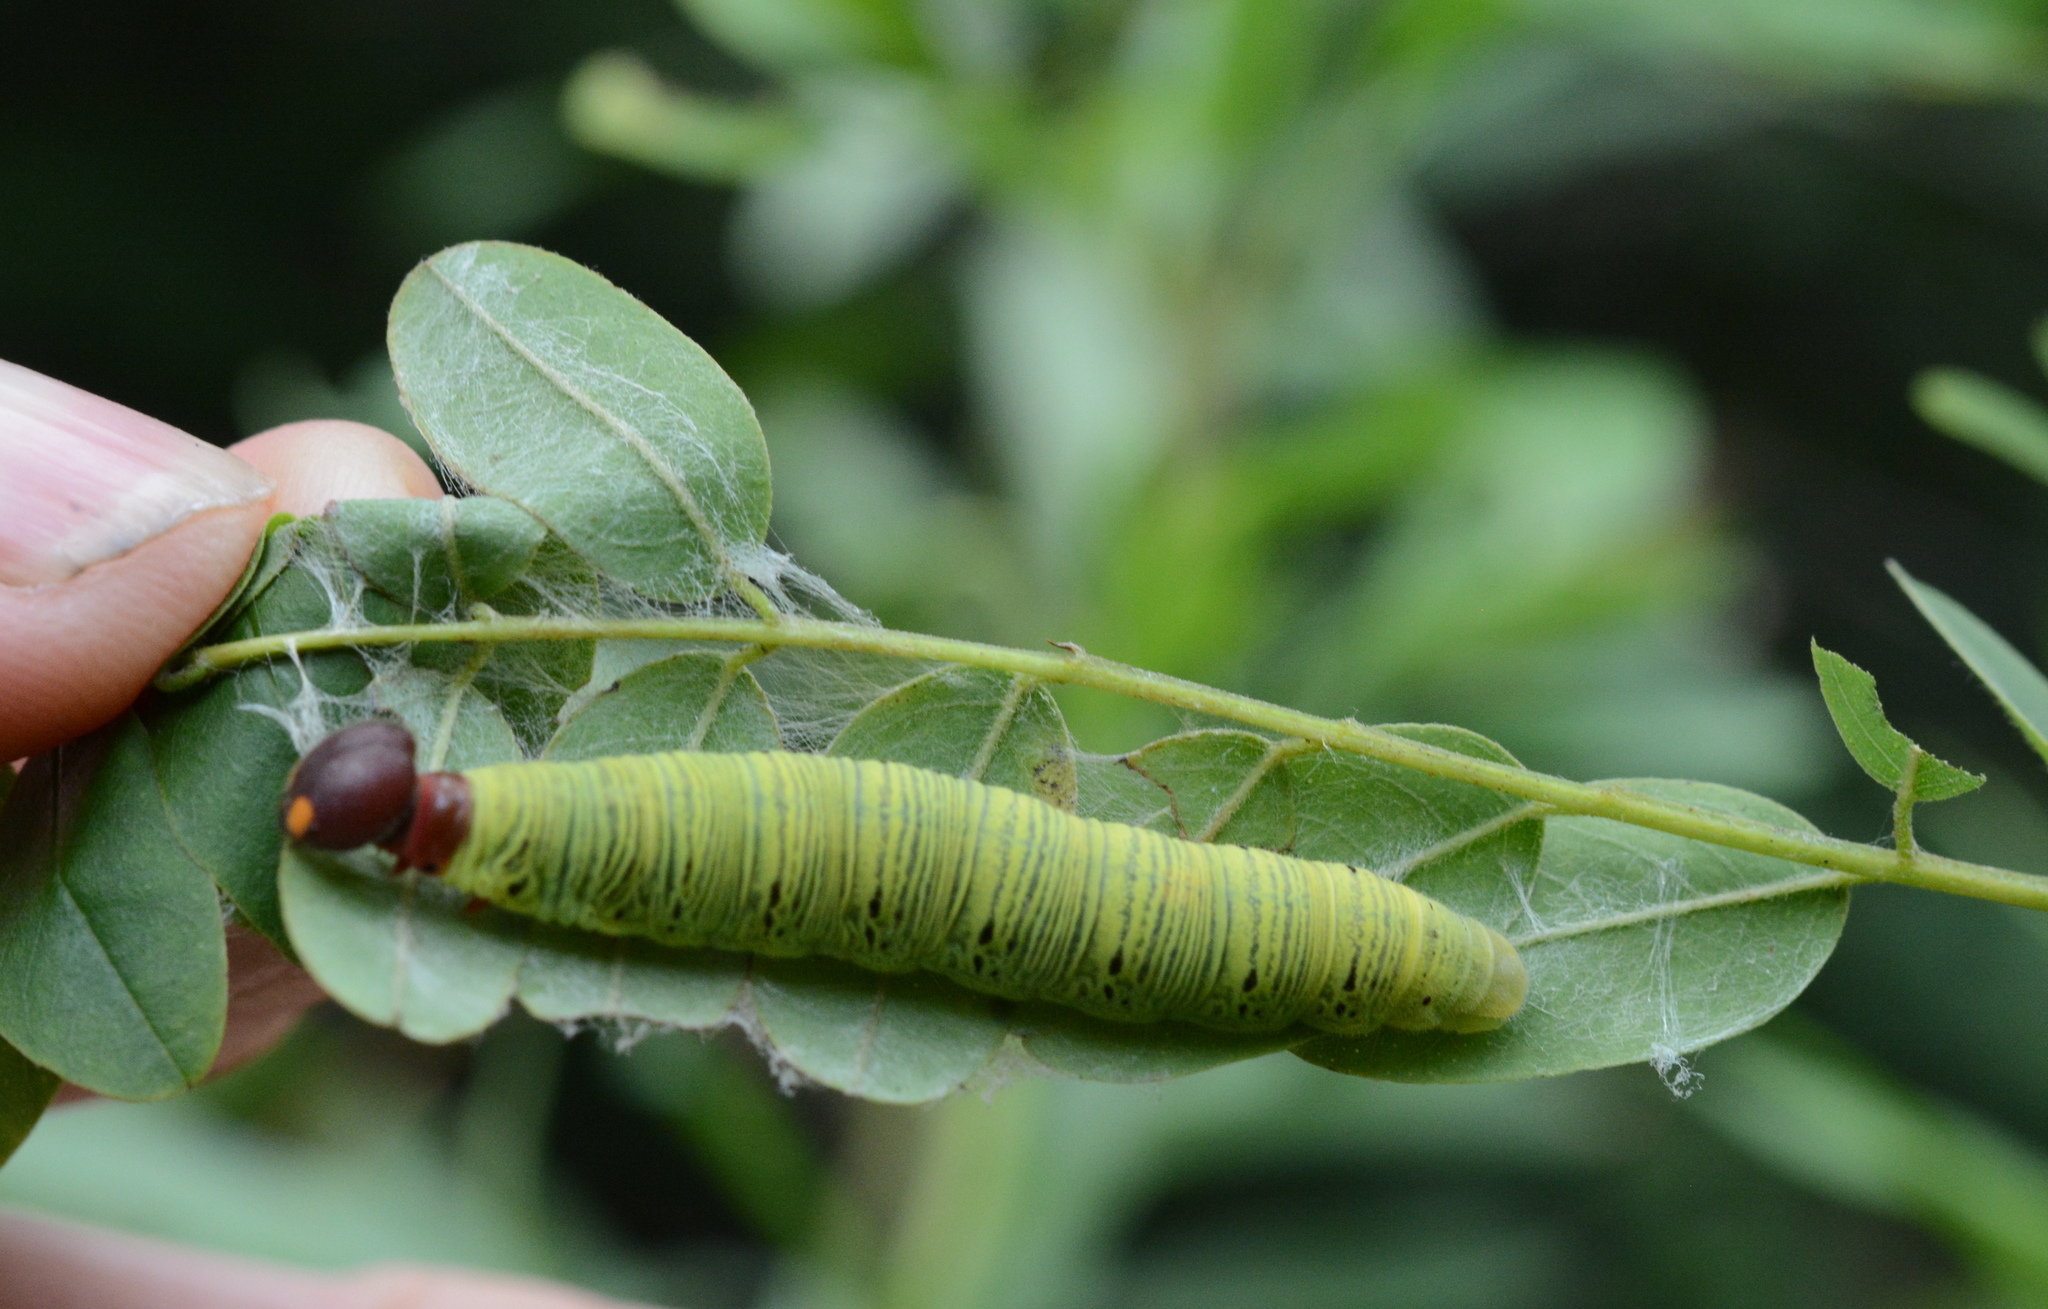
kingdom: Animalia
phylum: Arthropoda
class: Insecta
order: Lepidoptera
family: Hesperiidae
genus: Epargyreus
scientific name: Epargyreus clarus
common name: Silver-spotted skipper
